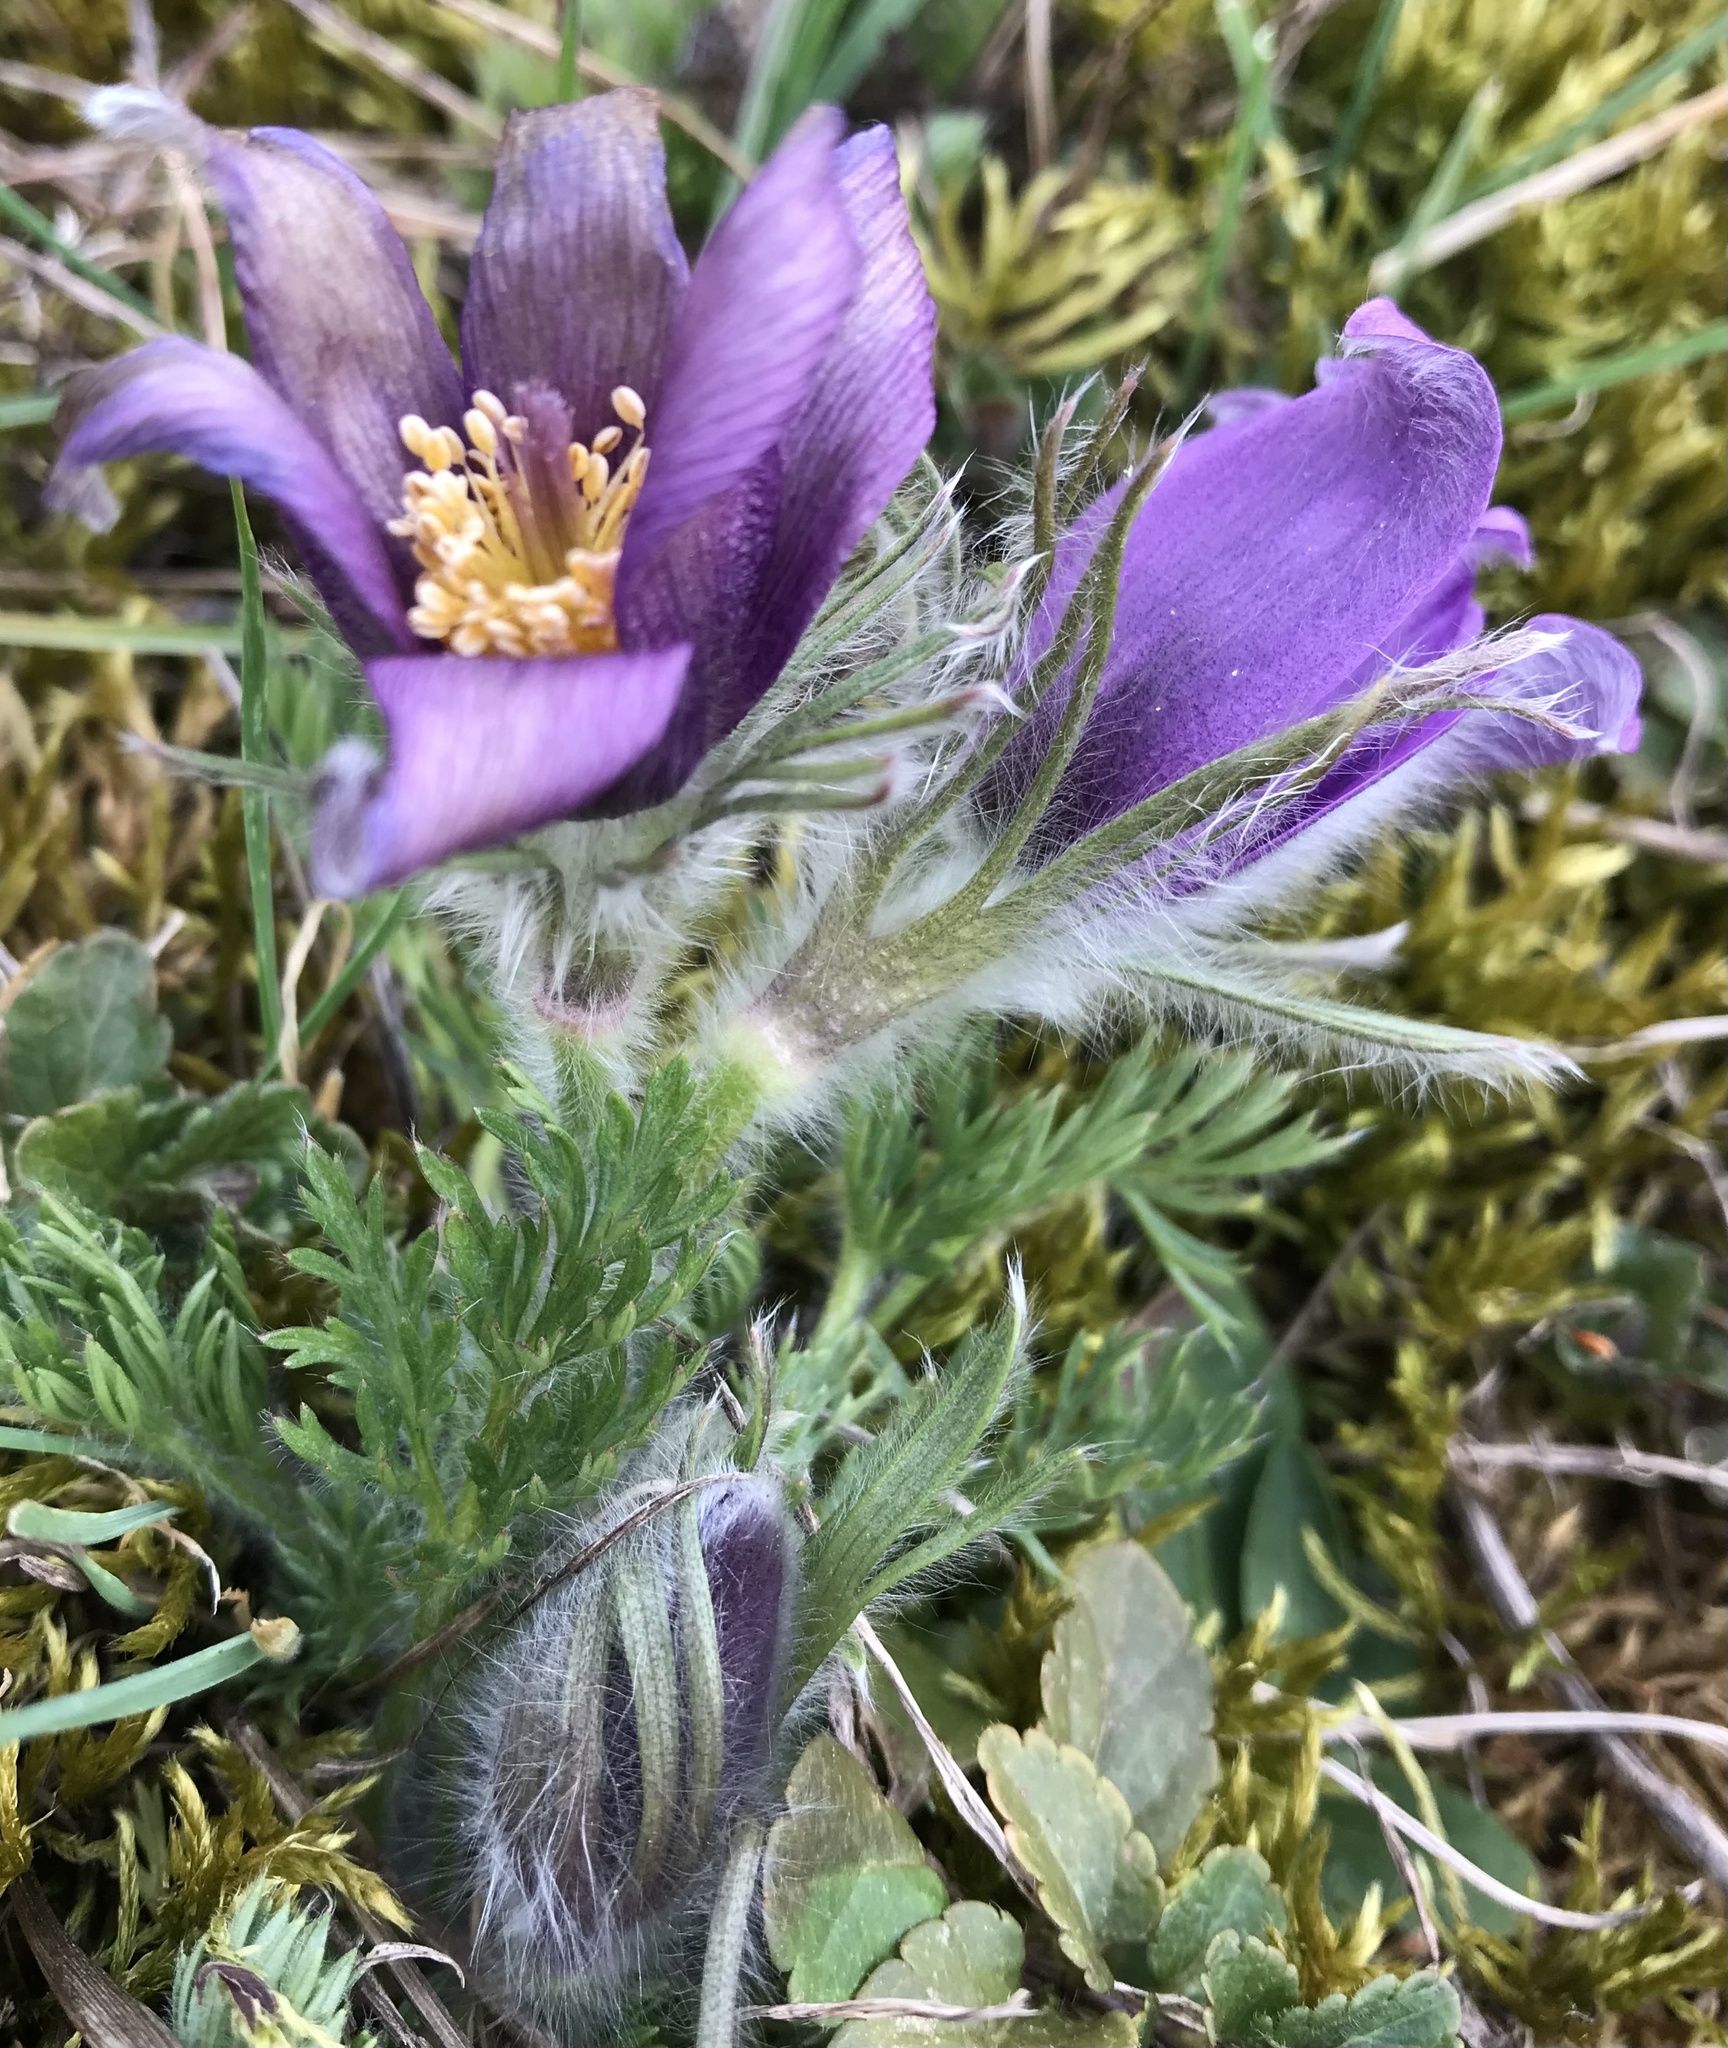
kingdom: Plantae
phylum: Tracheophyta
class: Magnoliopsida
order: Ranunculales
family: Ranunculaceae
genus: Pulsatilla
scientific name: Pulsatilla vulgaris
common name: Pasqueflower
